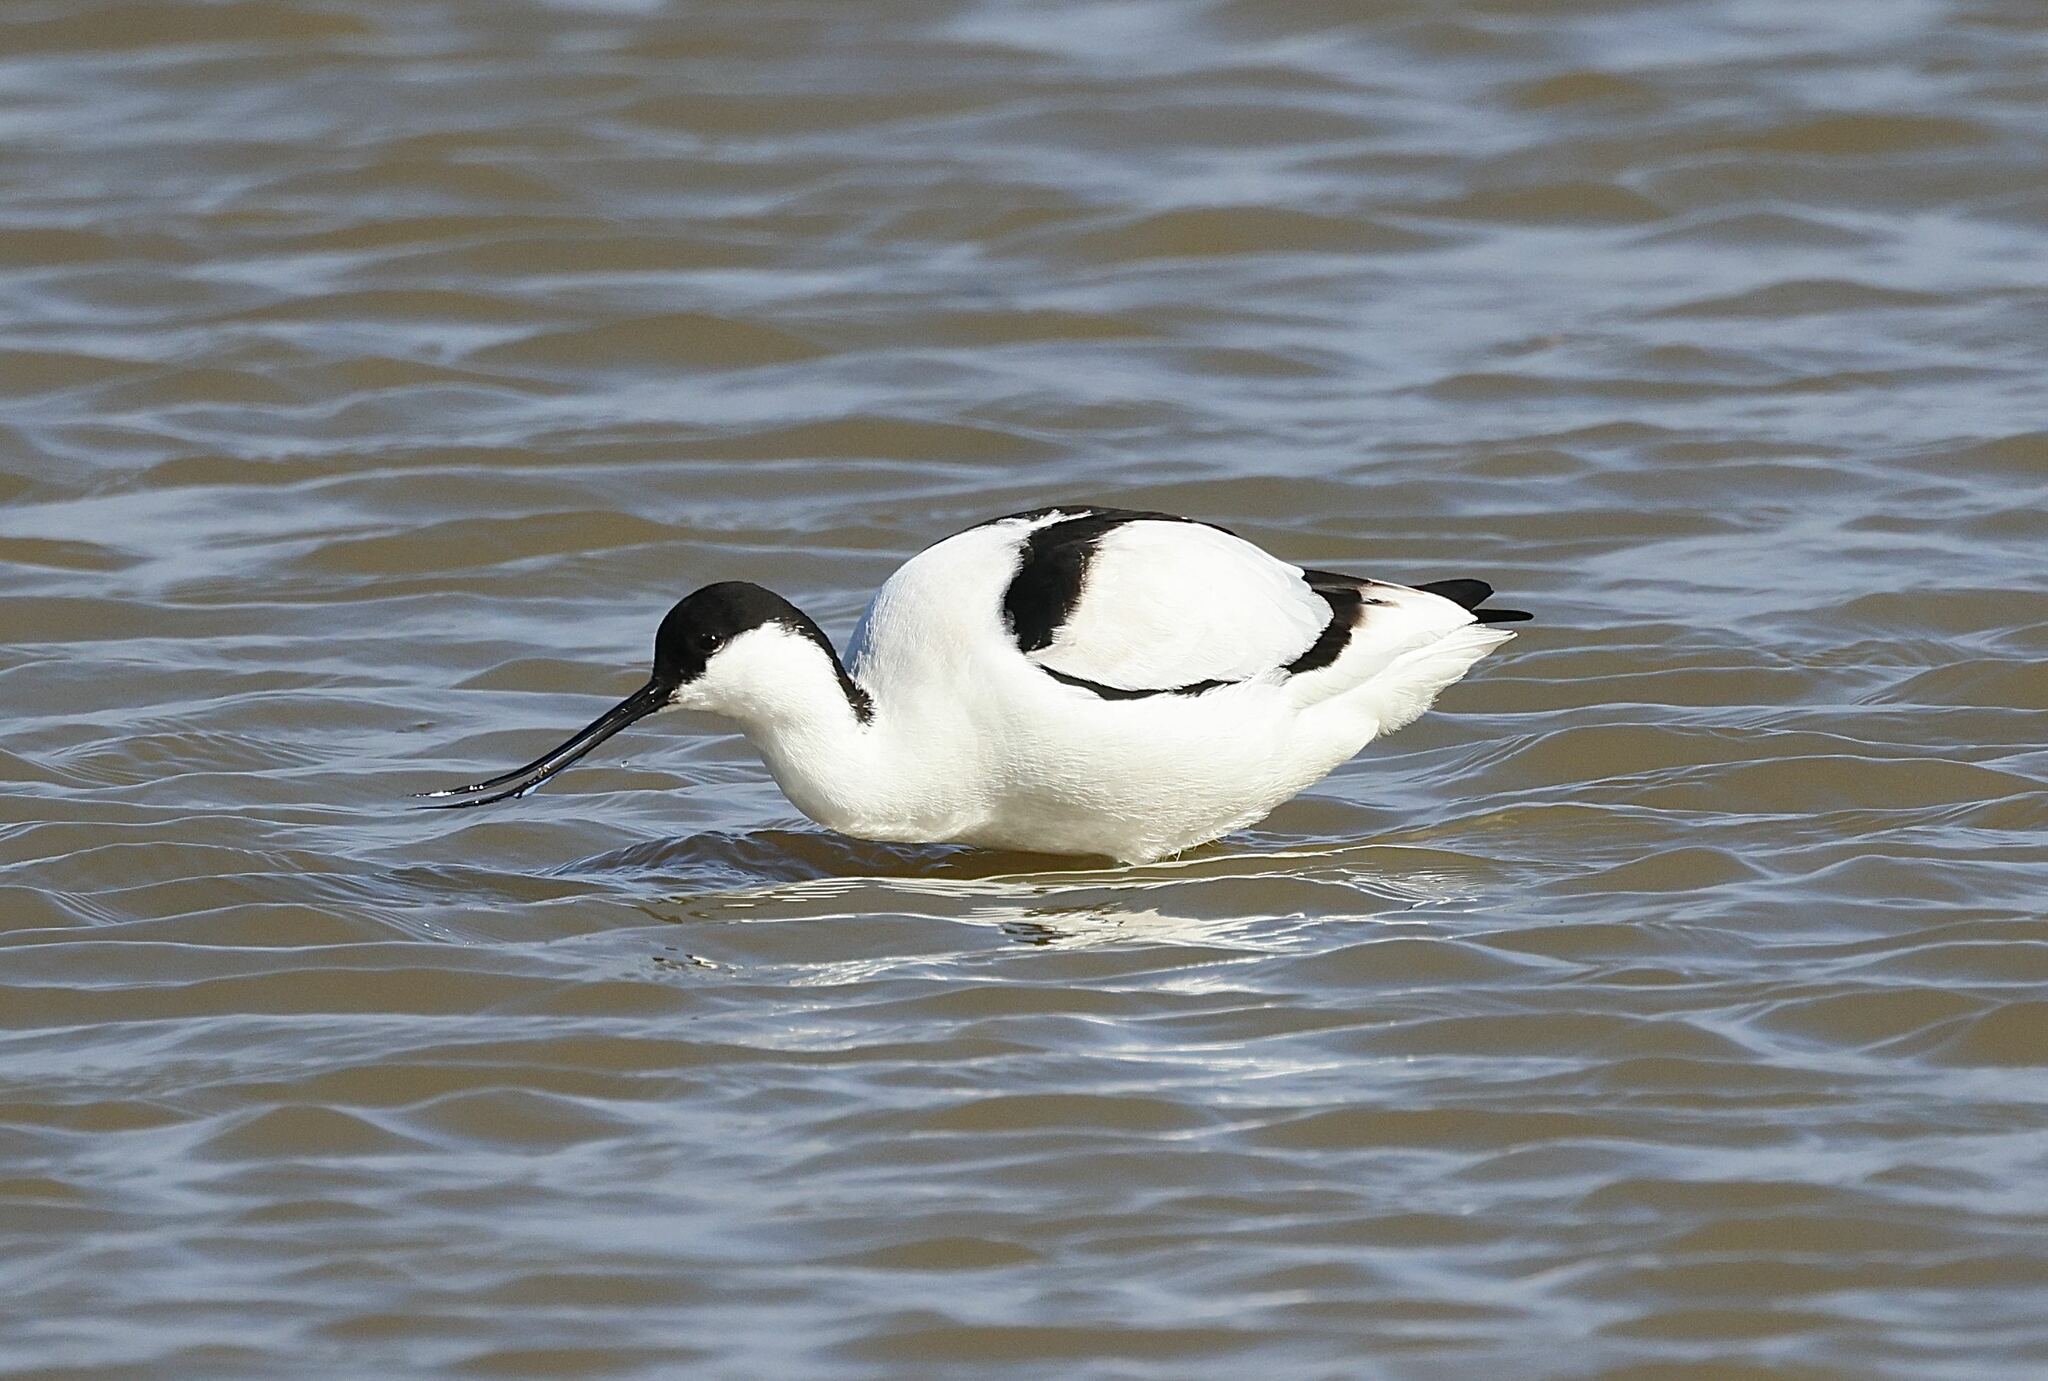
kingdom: Animalia
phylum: Chordata
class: Aves
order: Charadriiformes
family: Recurvirostridae
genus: Recurvirostra
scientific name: Recurvirostra avosetta
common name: Pied avocet
